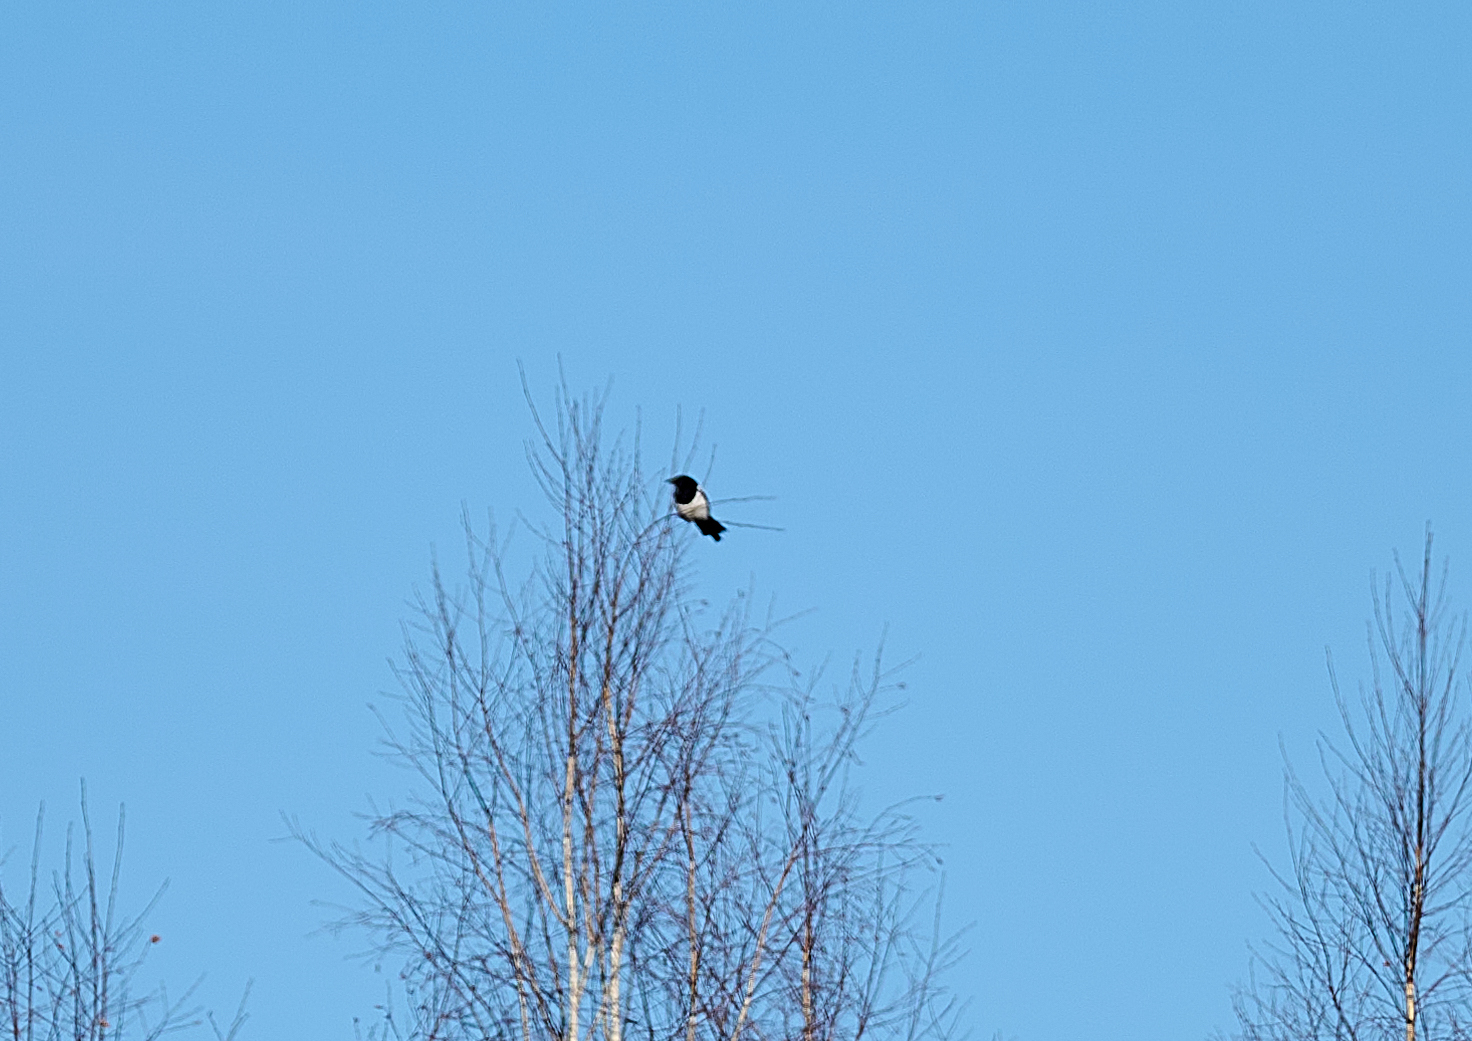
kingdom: Animalia
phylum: Chordata
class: Aves
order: Passeriformes
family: Corvidae
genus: Pica
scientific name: Pica pica
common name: Eurasian magpie
